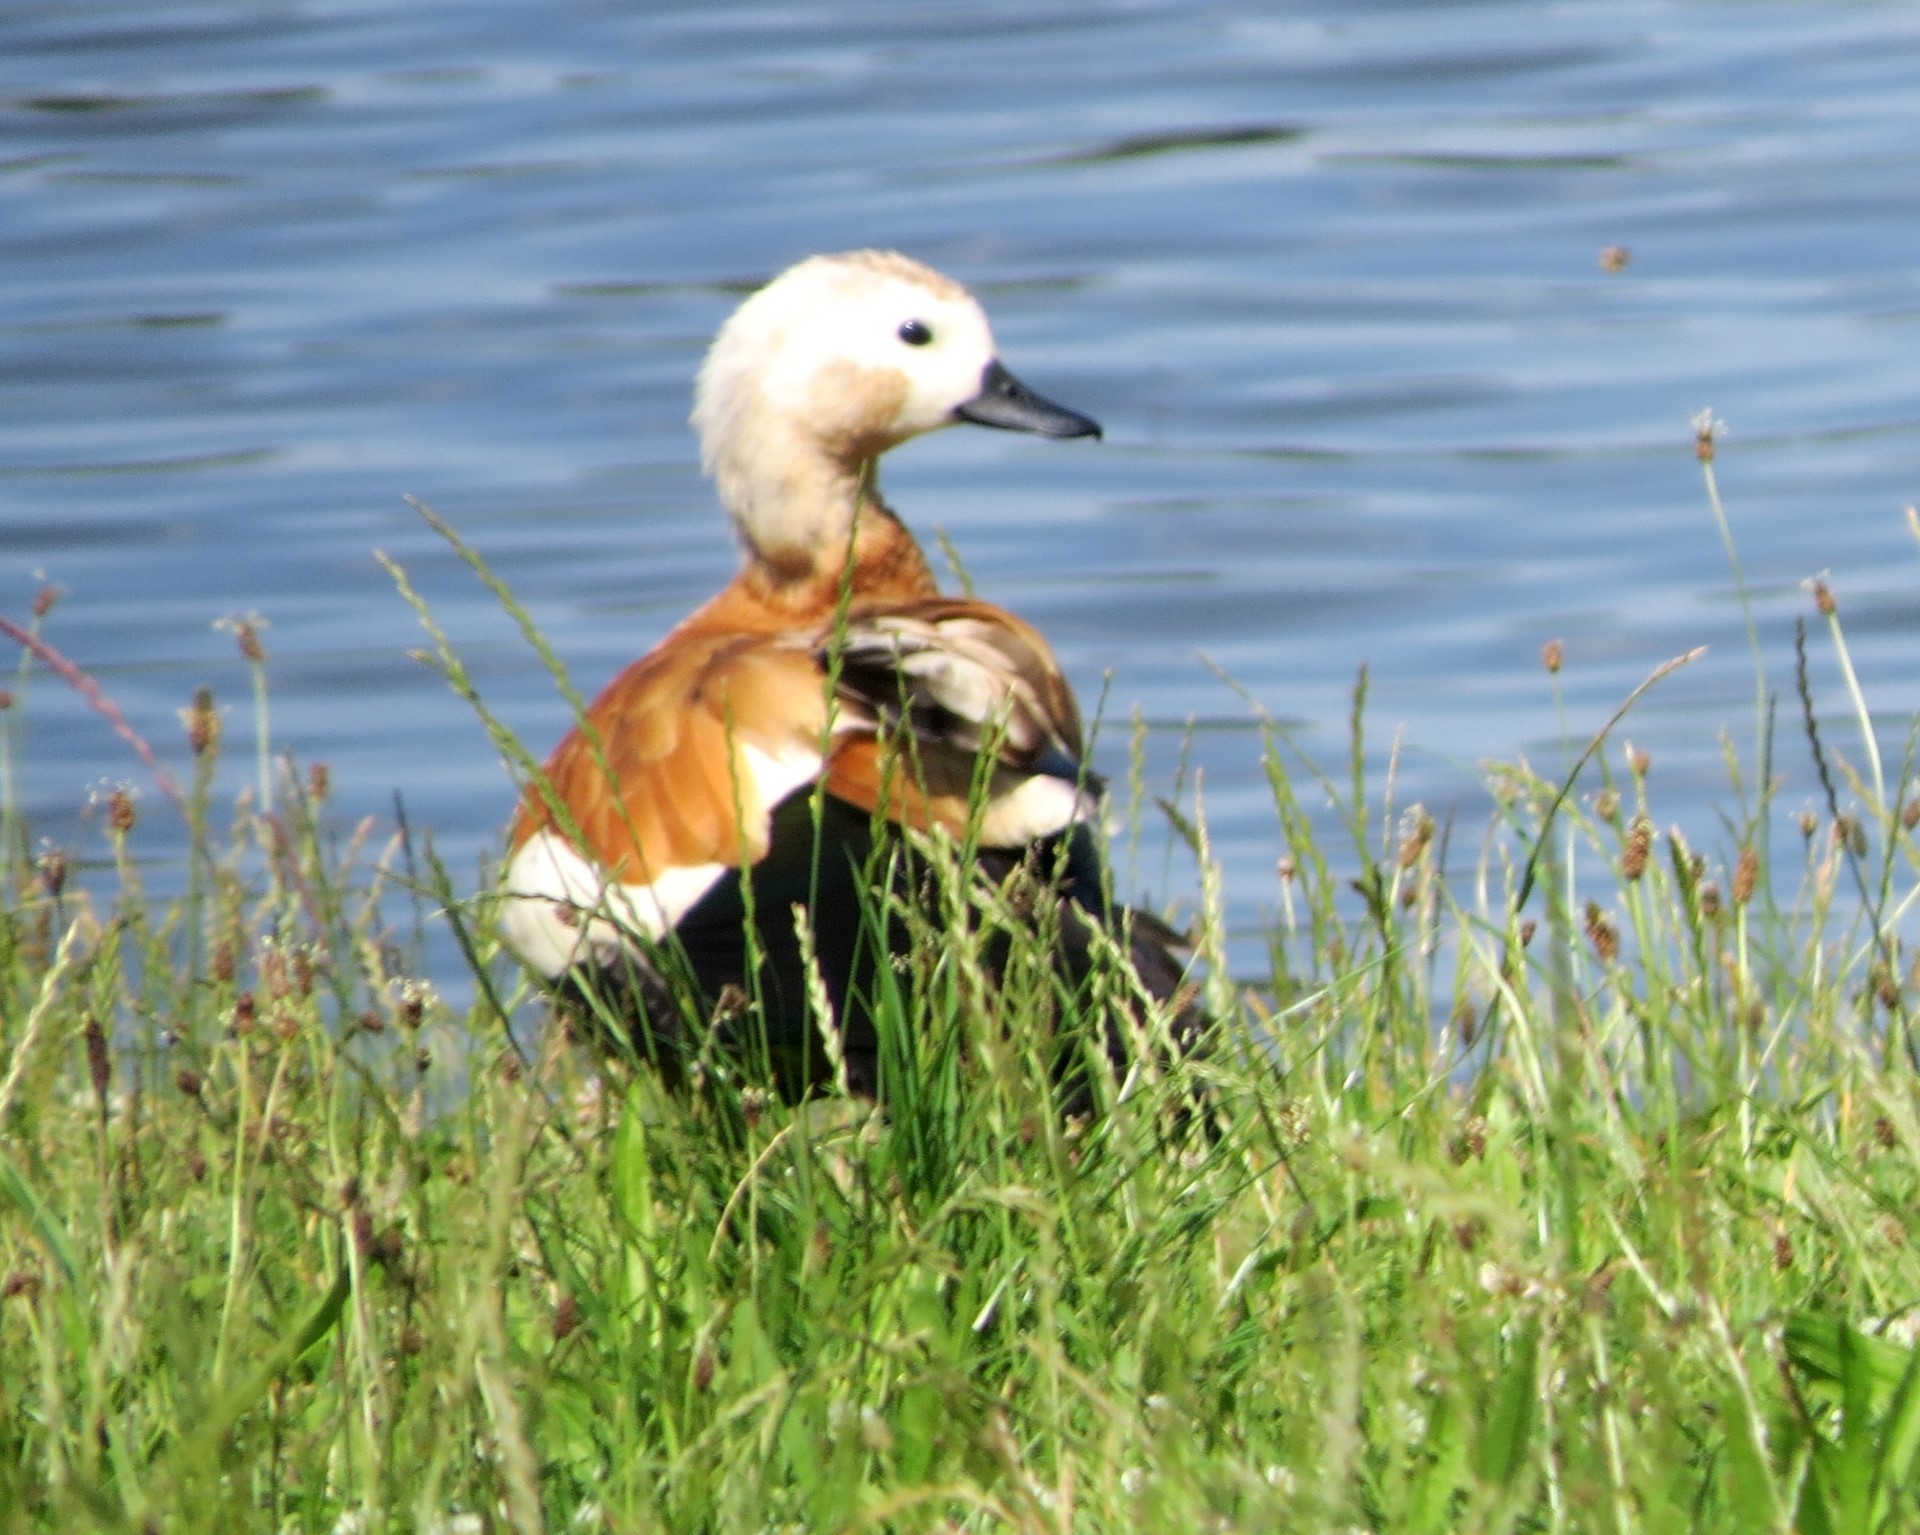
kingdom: Animalia
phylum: Chordata
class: Aves
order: Anseriformes
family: Anatidae
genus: Tadorna
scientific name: Tadorna ferruginea
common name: Ruddy shelduck
